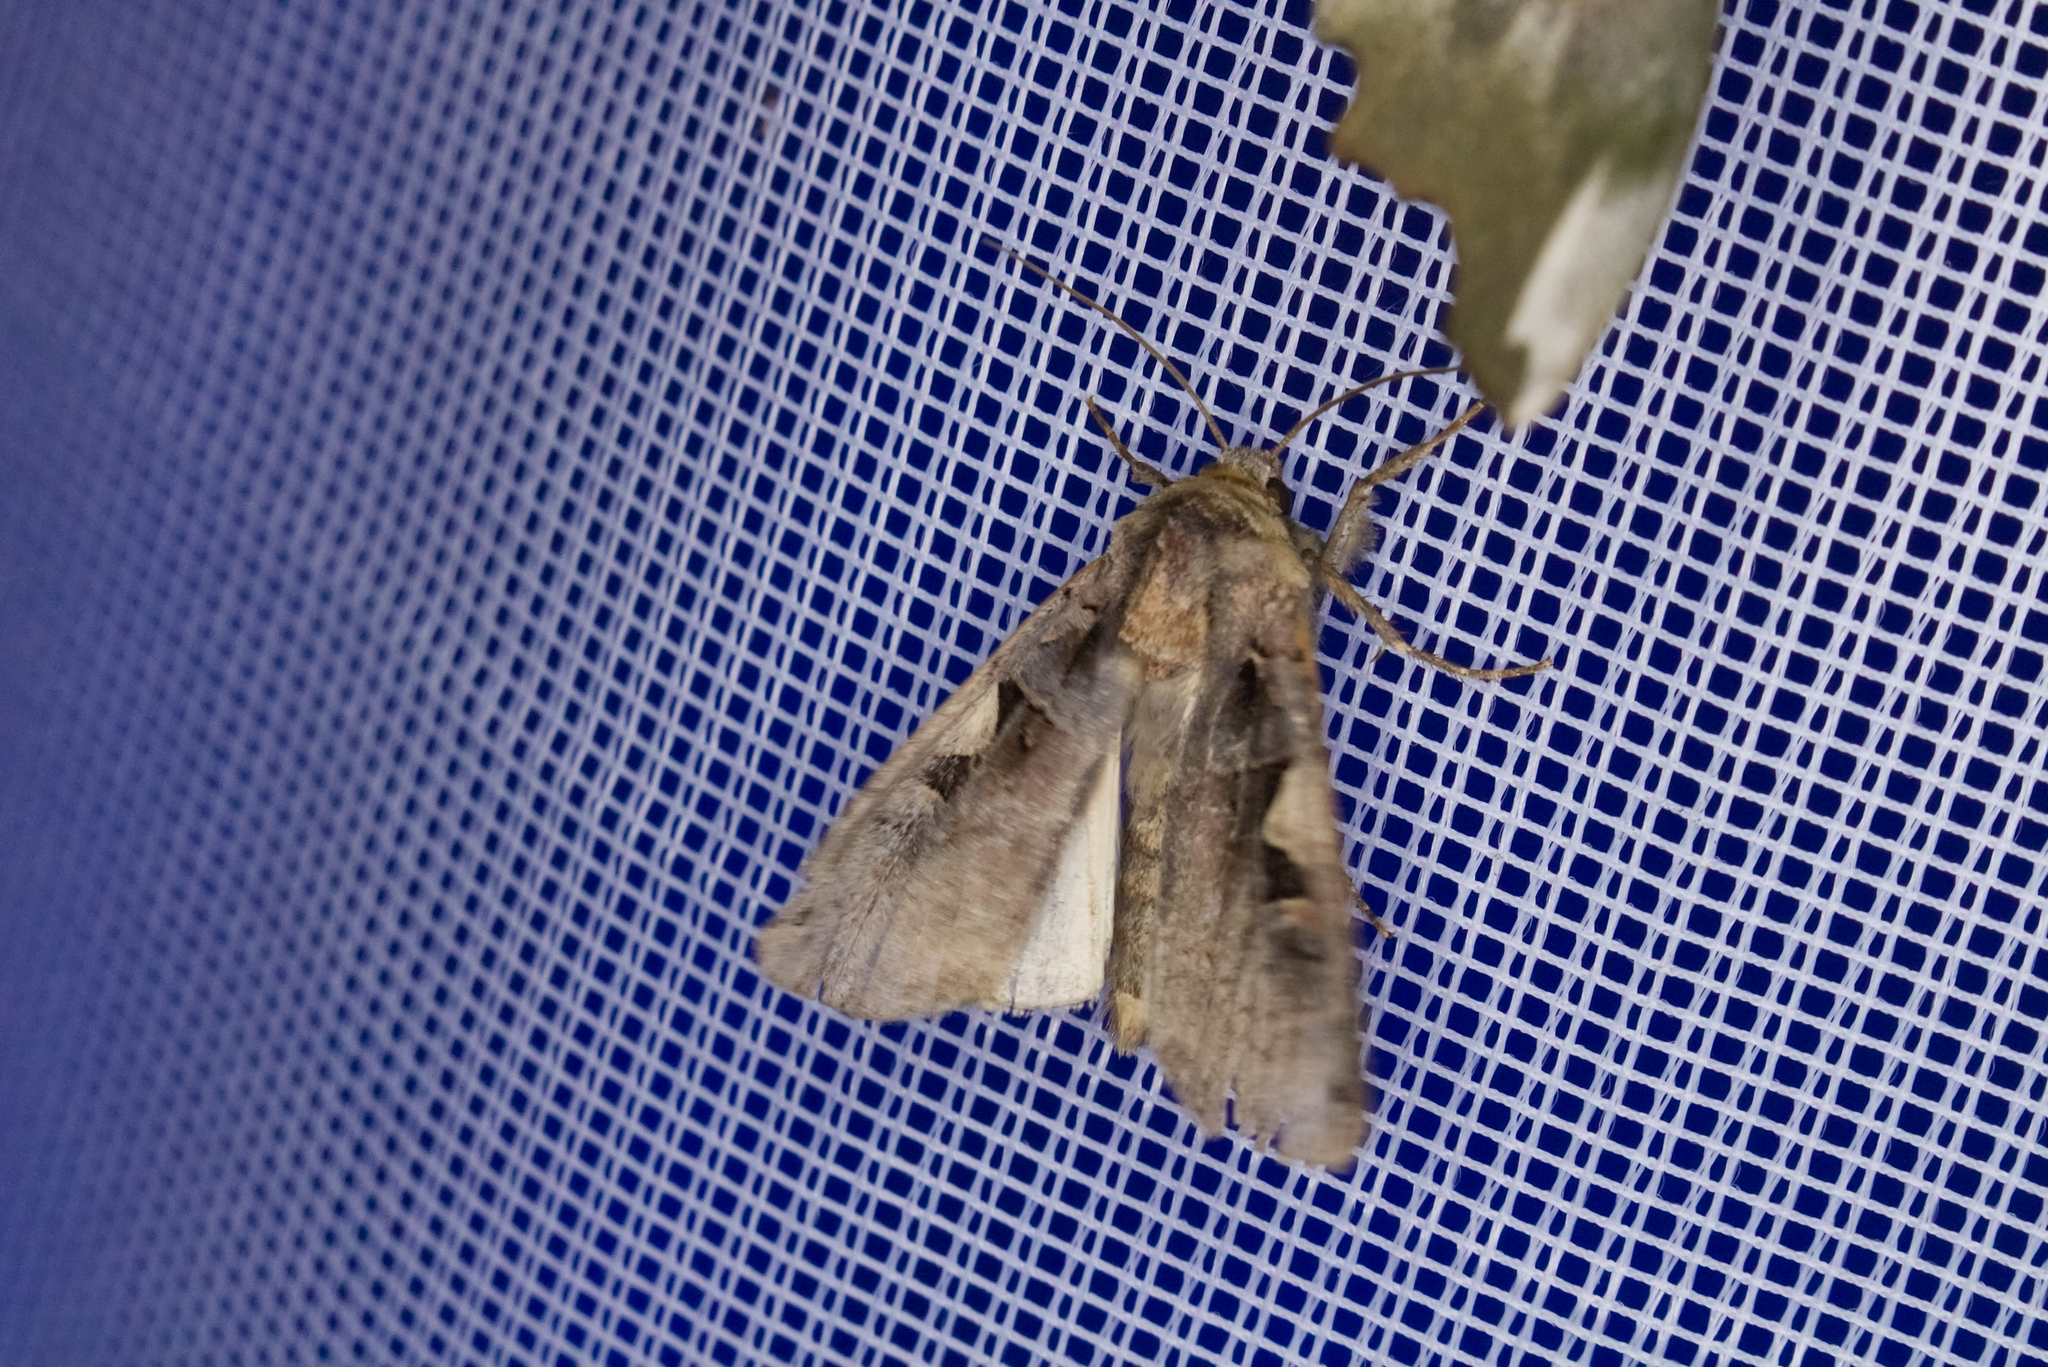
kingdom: Animalia
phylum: Arthropoda
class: Insecta
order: Lepidoptera
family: Noctuidae
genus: Xestia
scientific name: Xestia c-nigrum
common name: Setaceous hebrew character
